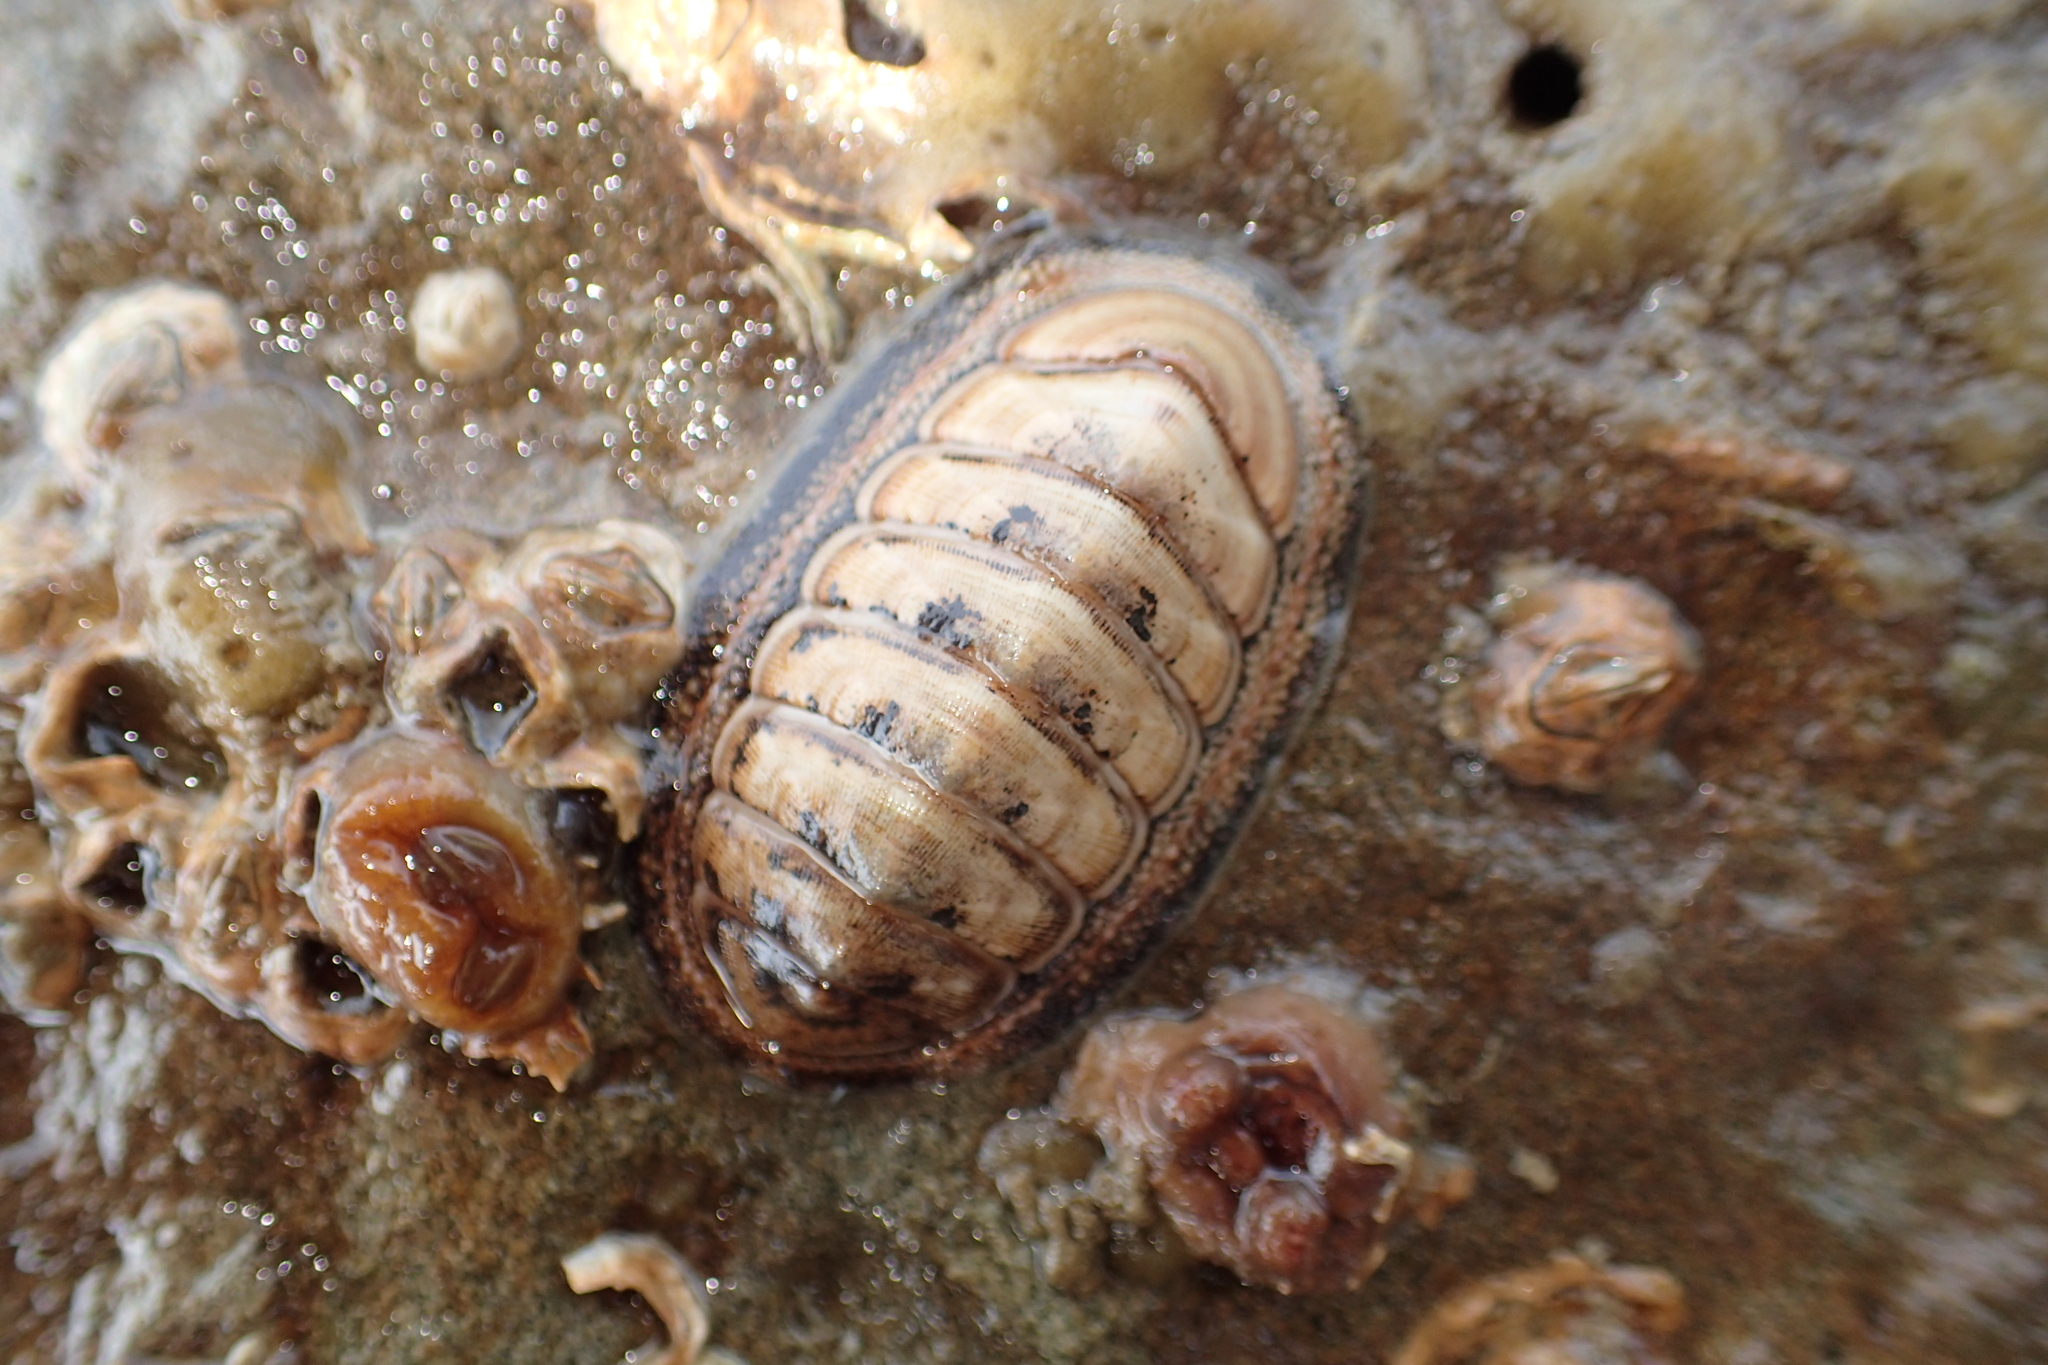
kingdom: Animalia
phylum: Mollusca
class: Polyplacophora
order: Chitonida
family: Chitonidae
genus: Chiton
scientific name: Chiton glaucus
